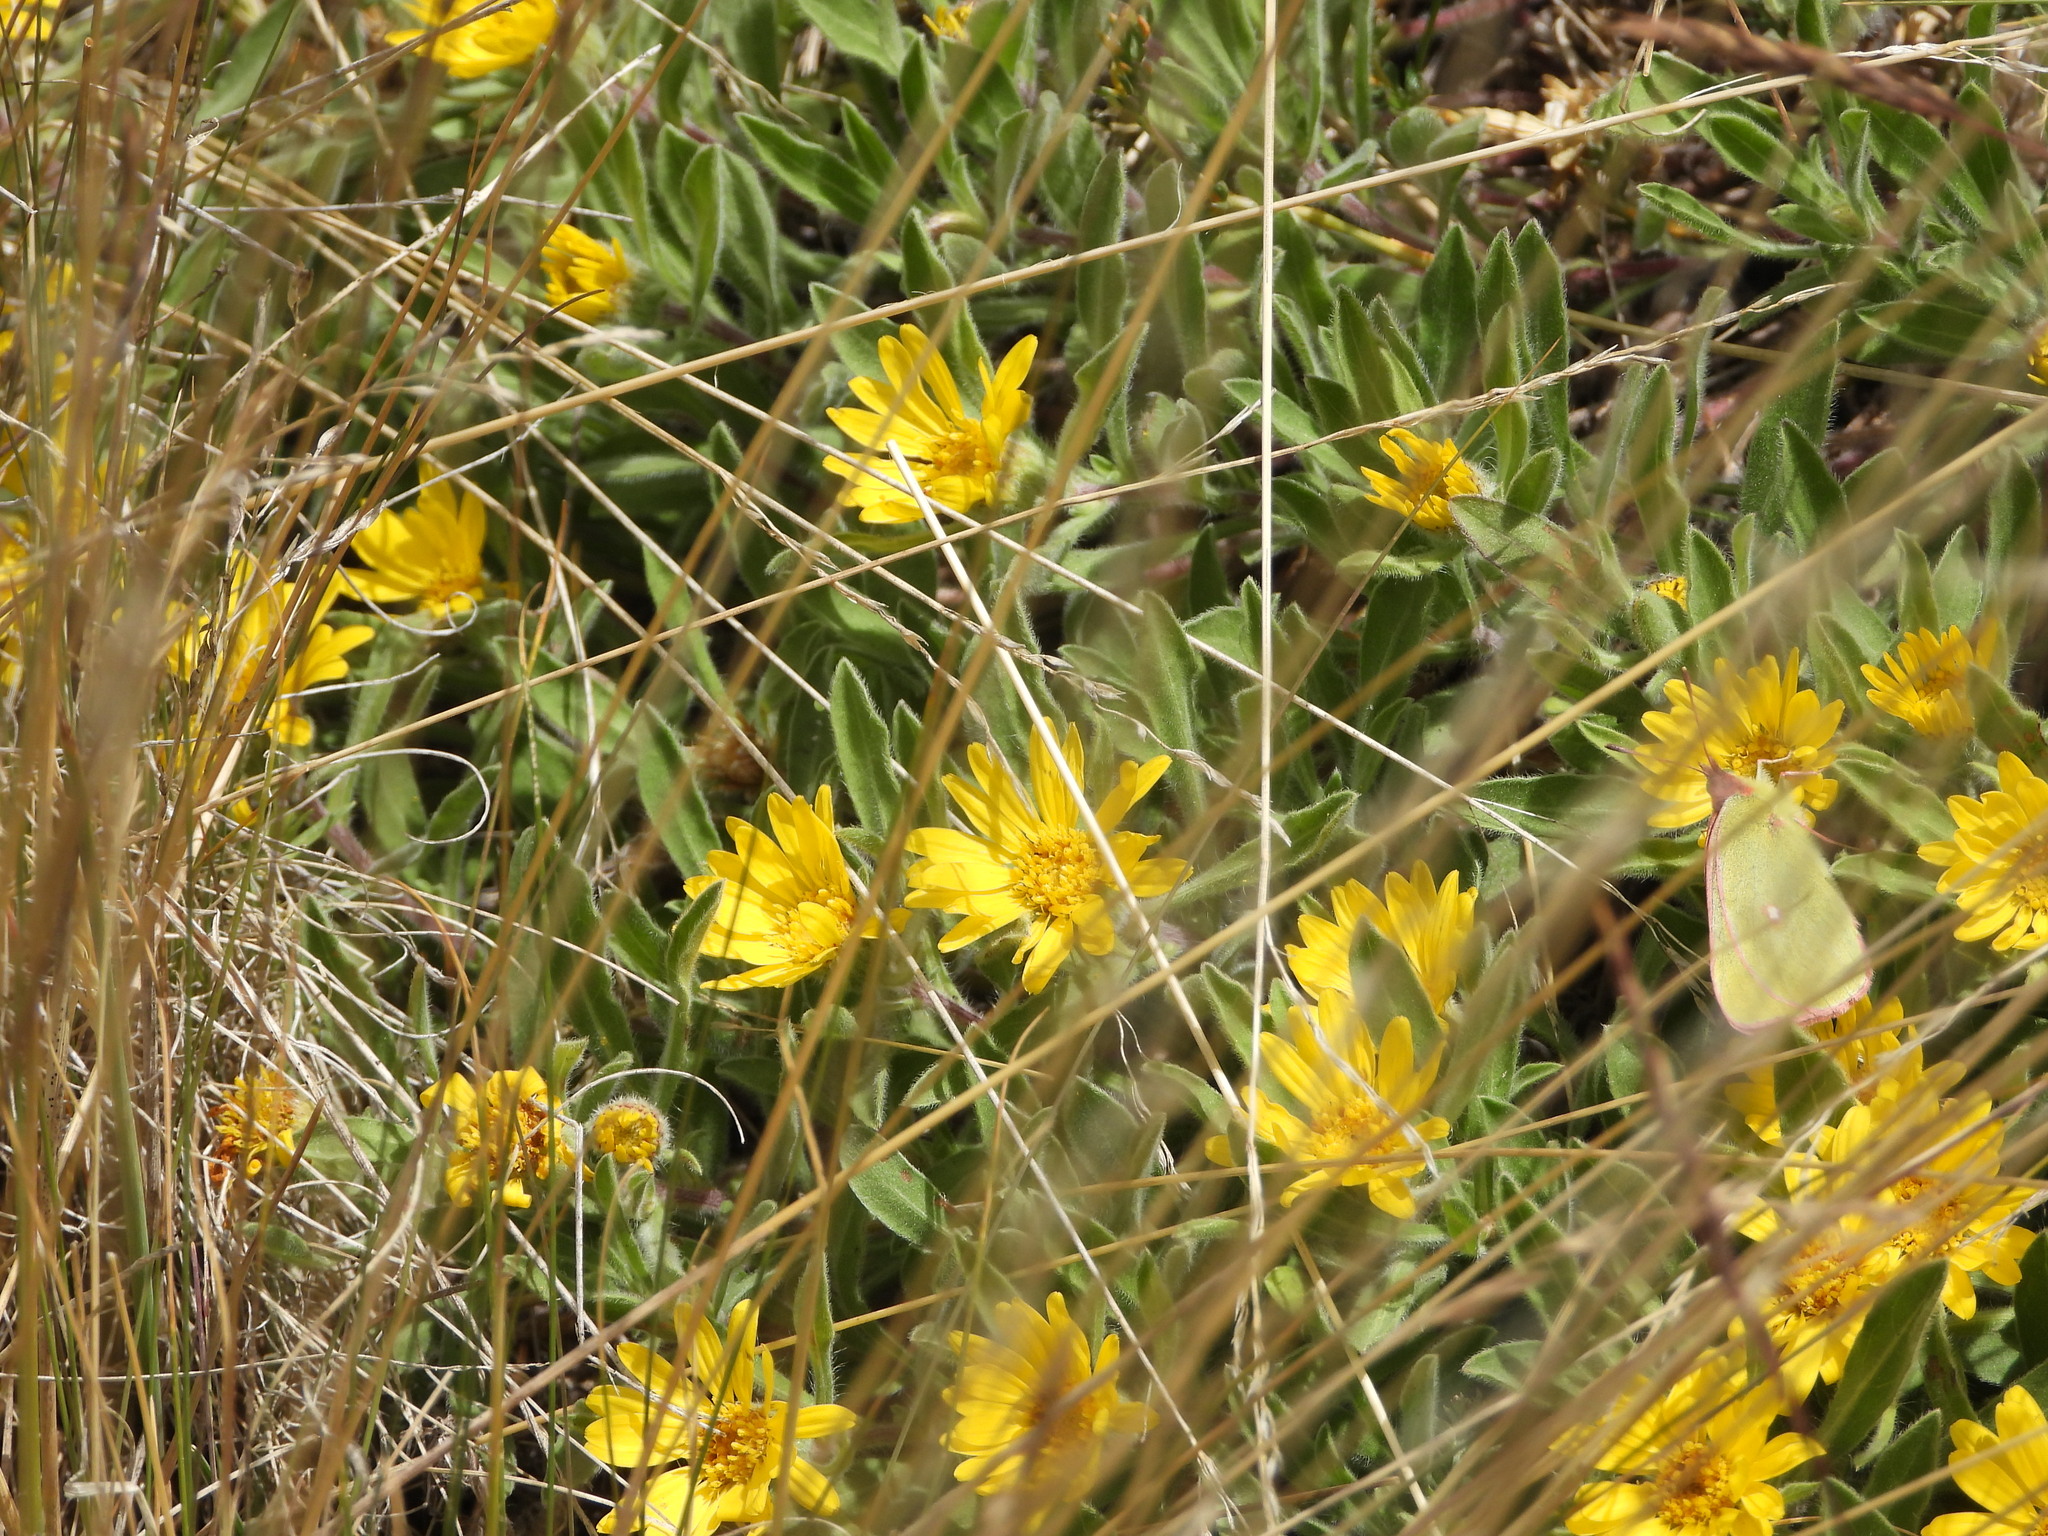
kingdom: Plantae
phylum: Tracheophyta
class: Magnoliopsida
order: Asterales
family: Asteraceae
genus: Heterotheca
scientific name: Heterotheca pumila
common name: Alpine golden-aster
